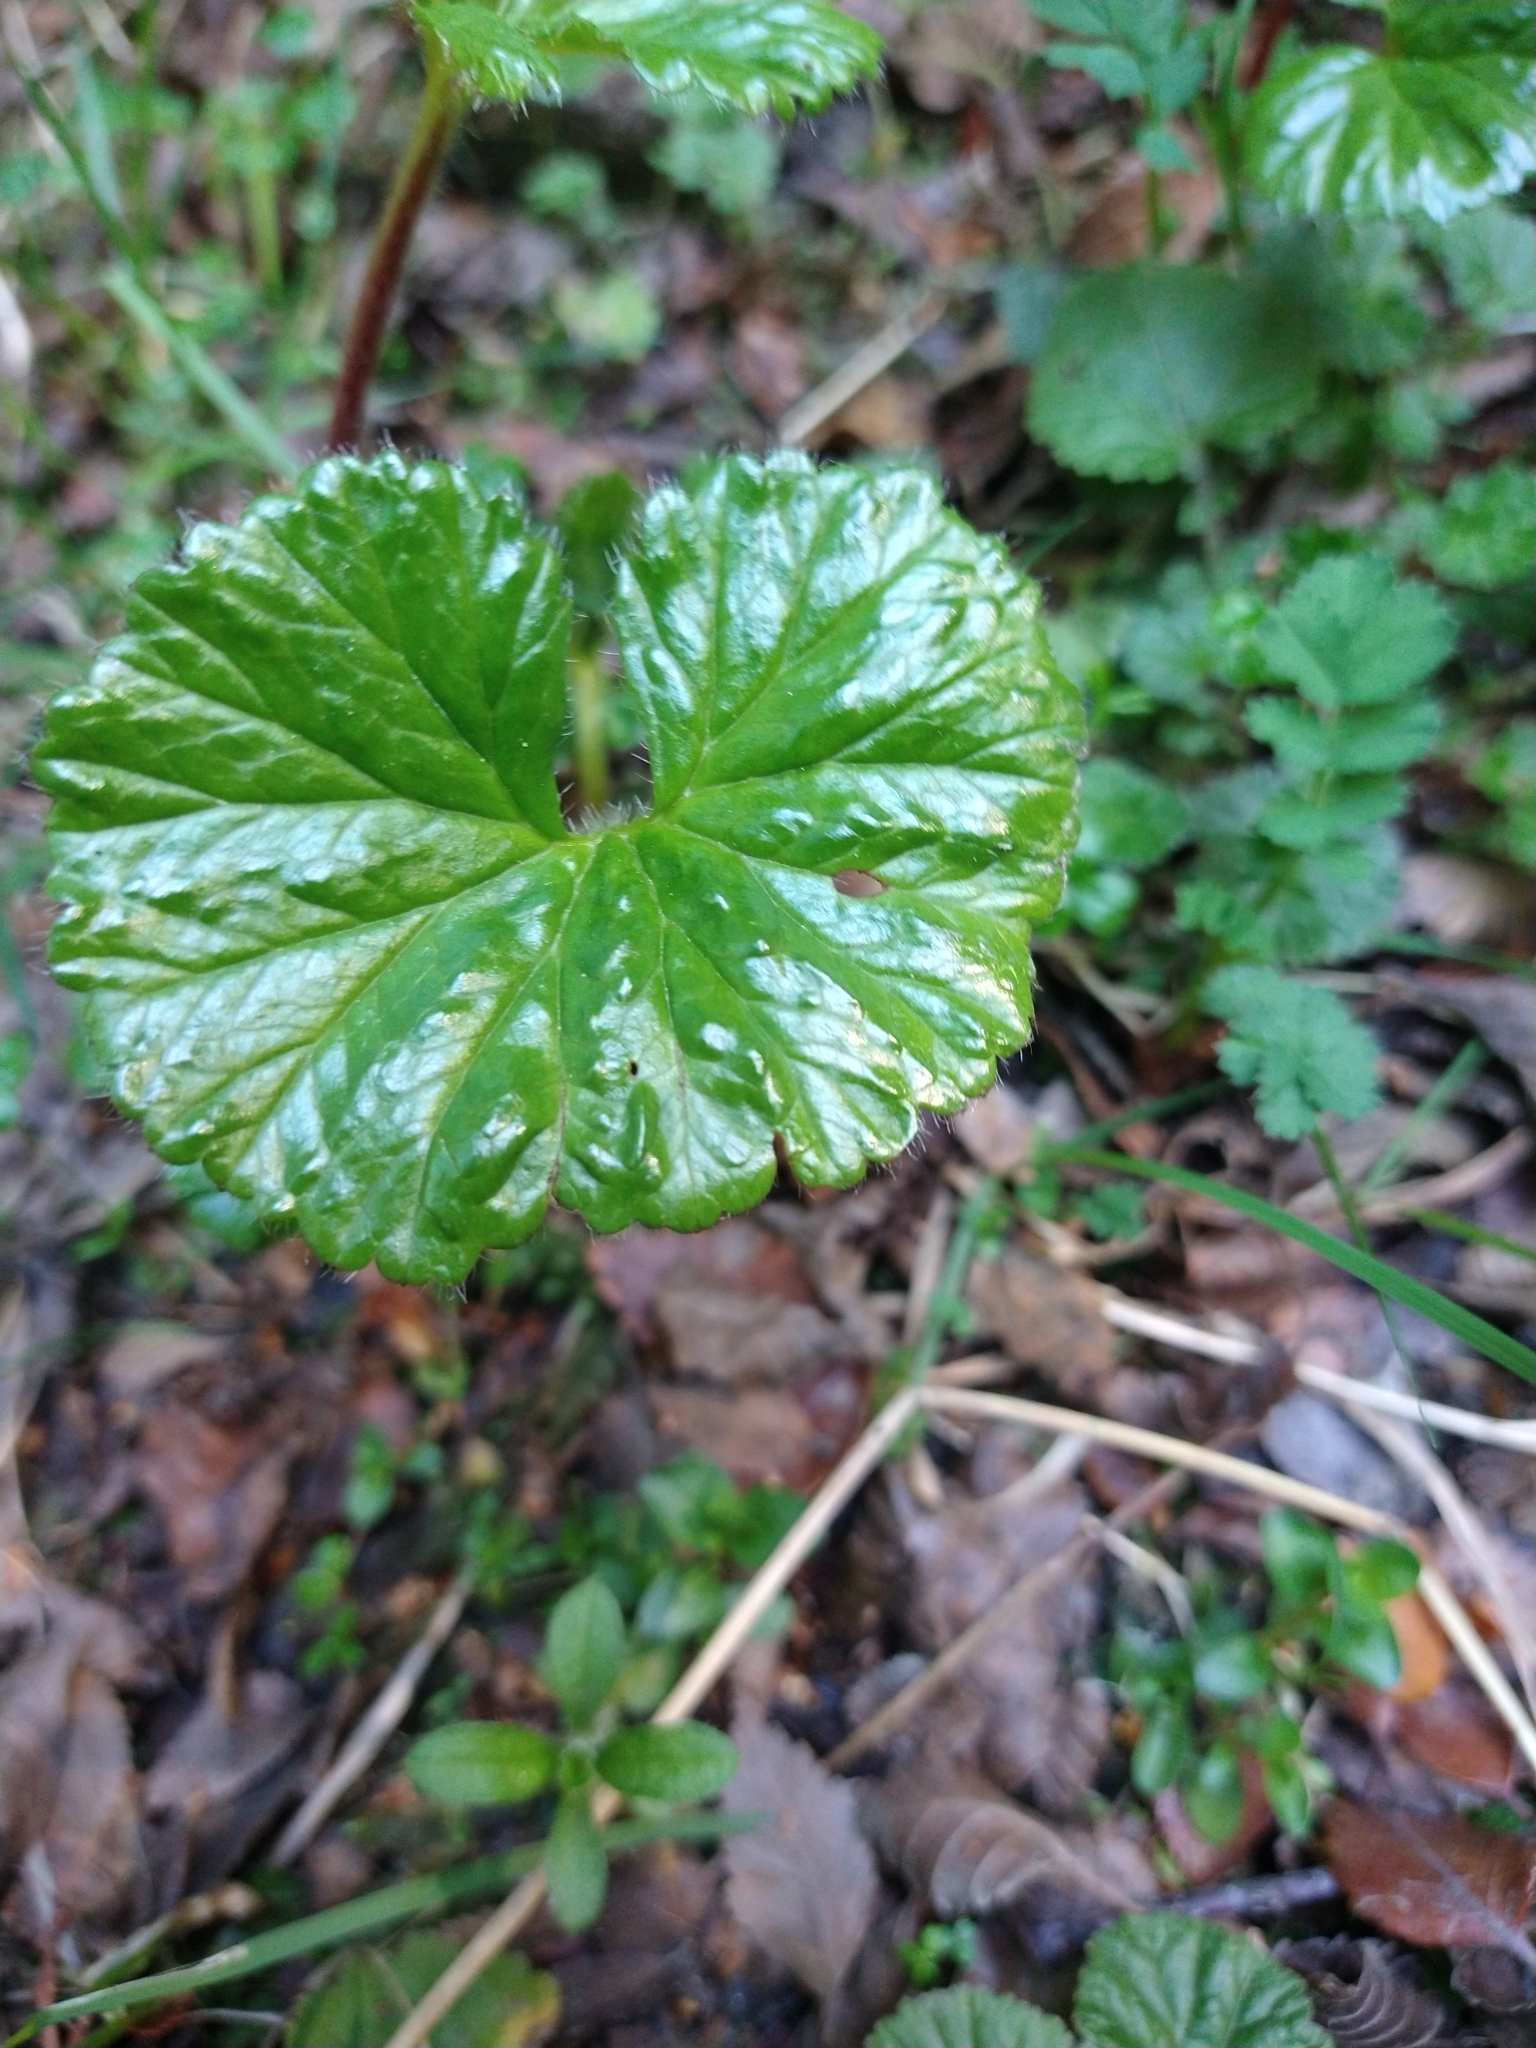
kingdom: Plantae
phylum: Tracheophyta
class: Magnoliopsida
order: Gunnerales
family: Gunneraceae
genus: Gunnera
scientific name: Gunnera magellanica
